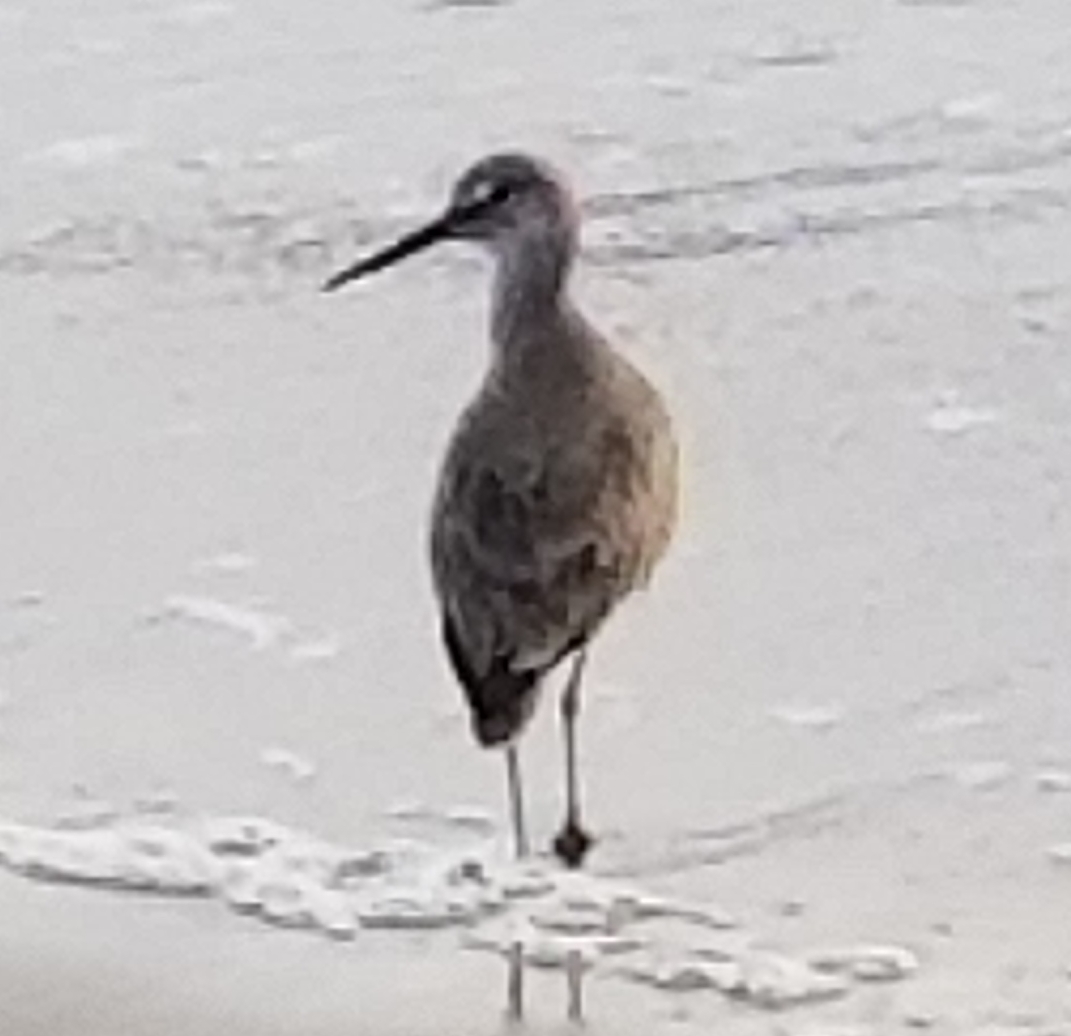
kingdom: Animalia
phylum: Chordata
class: Aves
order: Charadriiformes
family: Scolopacidae
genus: Tringa
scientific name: Tringa semipalmata
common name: Willet
